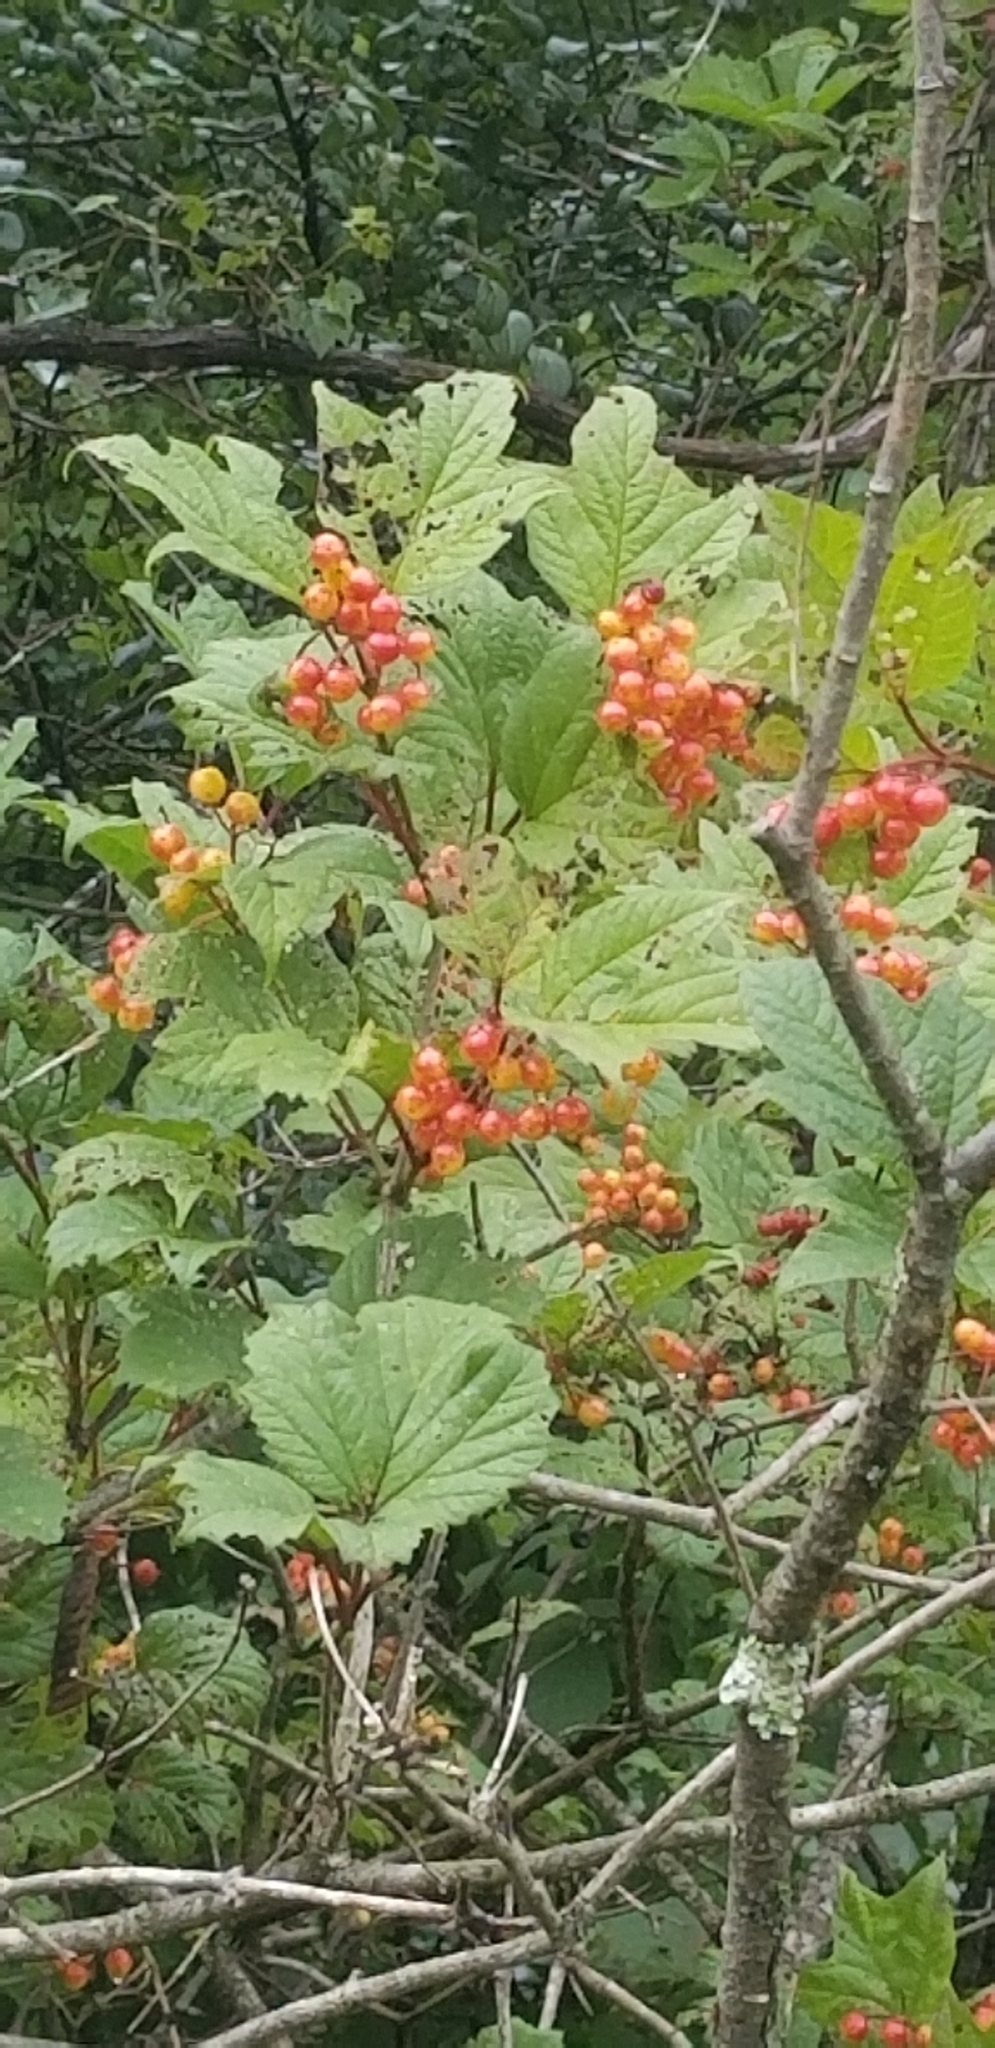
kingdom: Plantae
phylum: Tracheophyta
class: Magnoliopsida
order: Dipsacales
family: Viburnaceae
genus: Viburnum
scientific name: Viburnum opulus
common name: Guelder-rose
